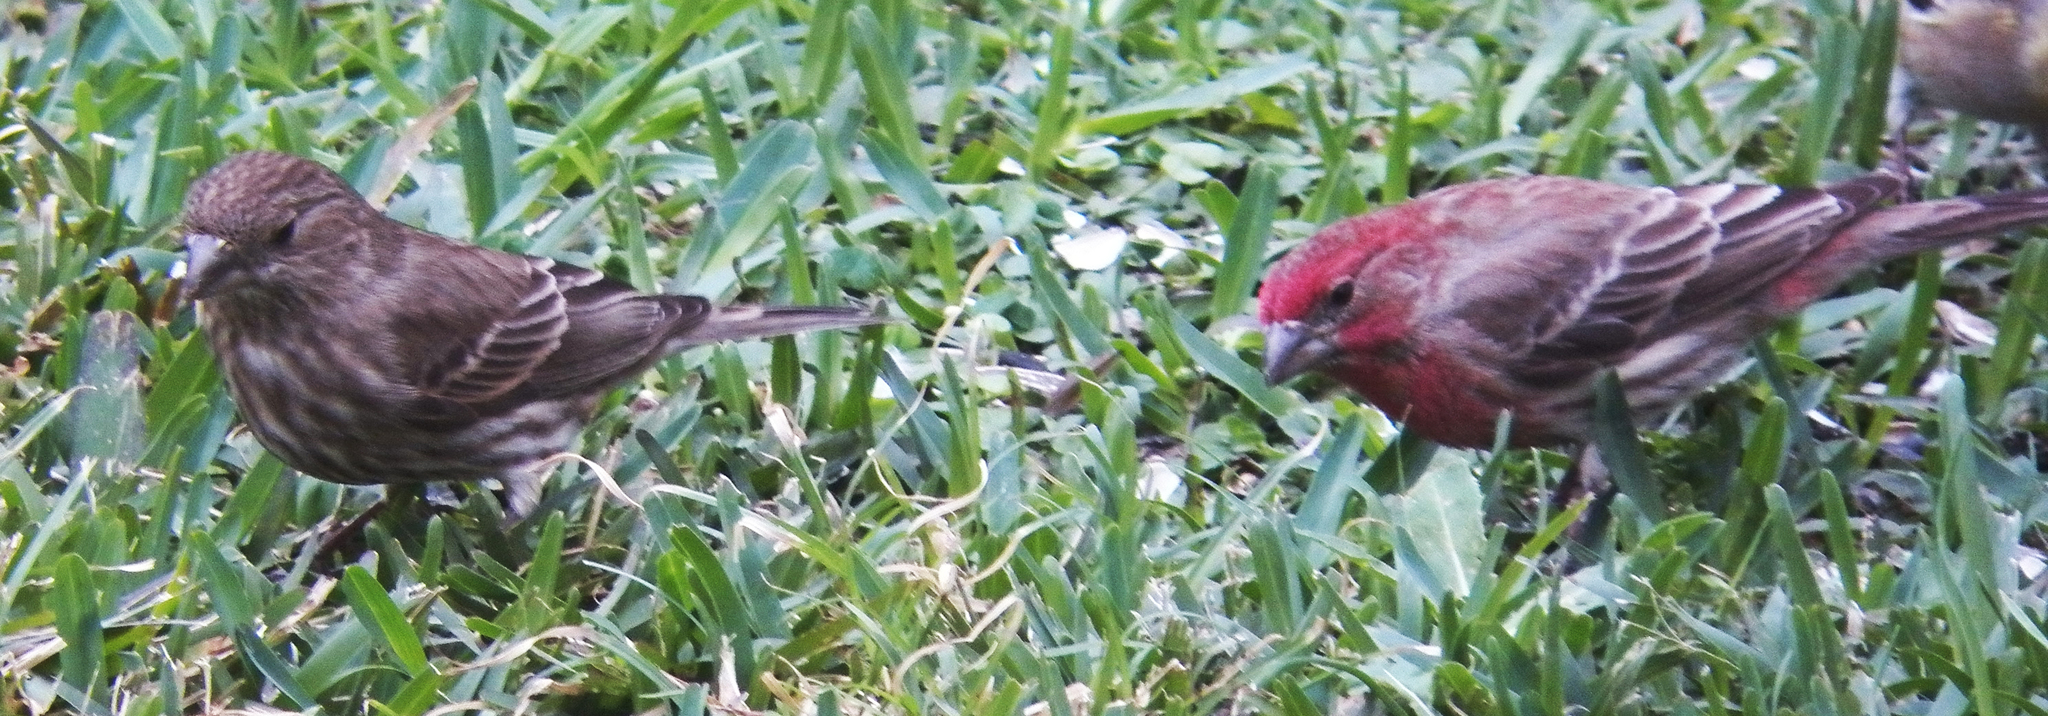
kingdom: Animalia
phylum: Chordata
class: Aves
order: Passeriformes
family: Fringillidae
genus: Haemorhous
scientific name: Haemorhous mexicanus
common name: House finch
